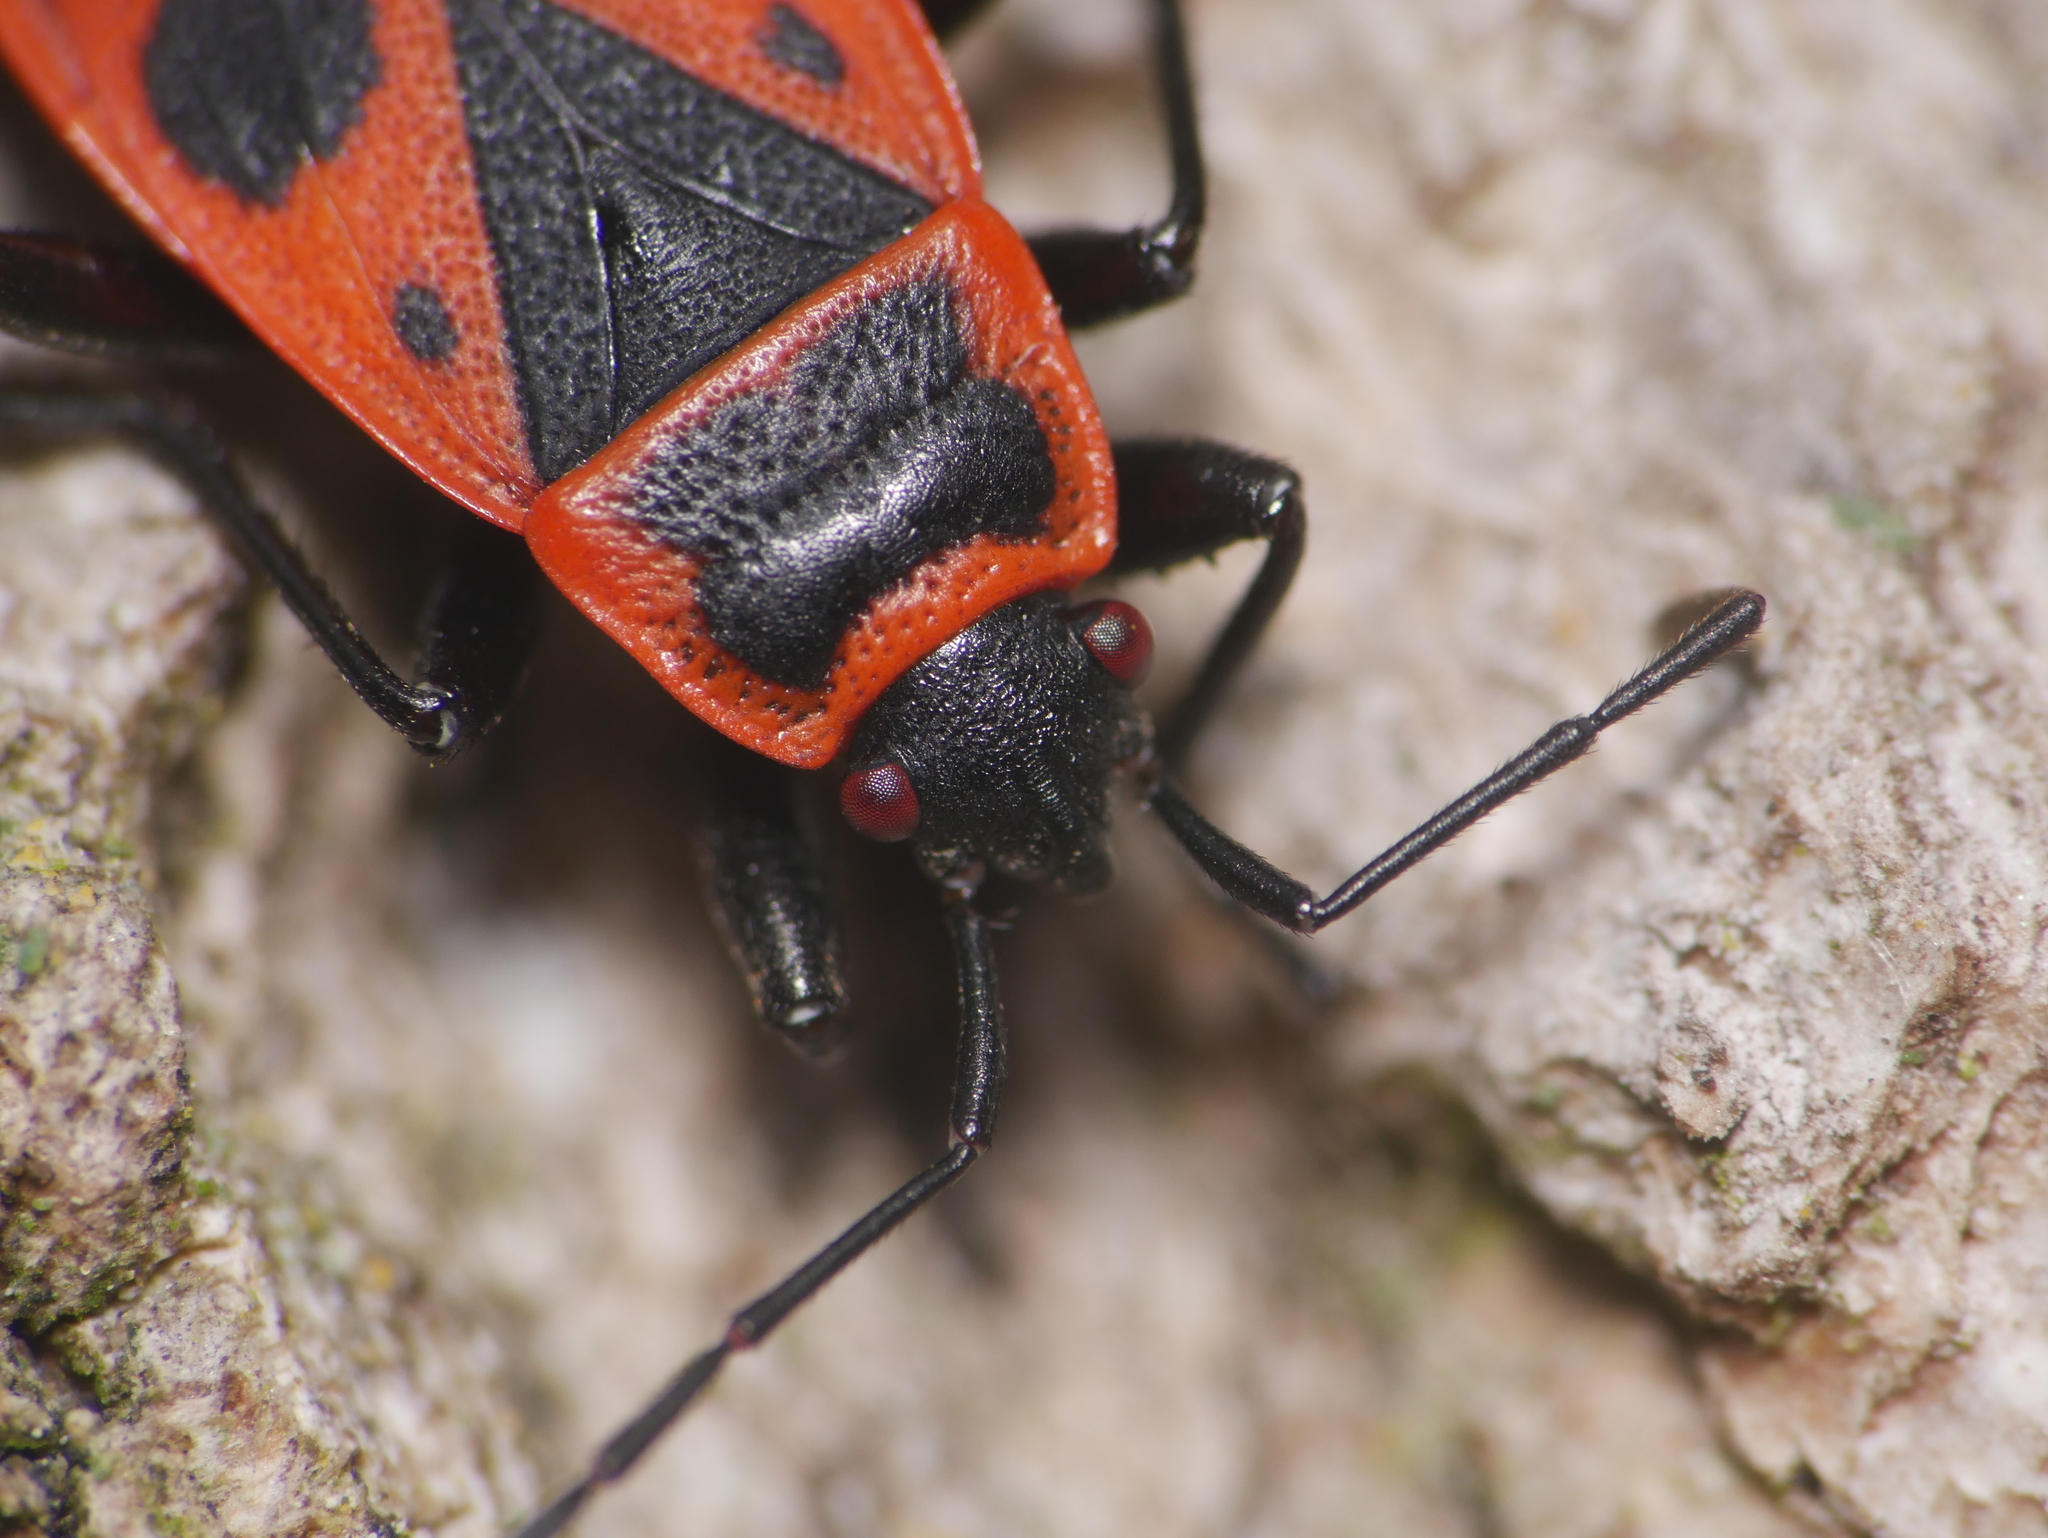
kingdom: Animalia
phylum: Arthropoda
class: Insecta
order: Hemiptera
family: Pyrrhocoridae
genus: Pyrrhocoris
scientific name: Pyrrhocoris apterus
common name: Firebug
